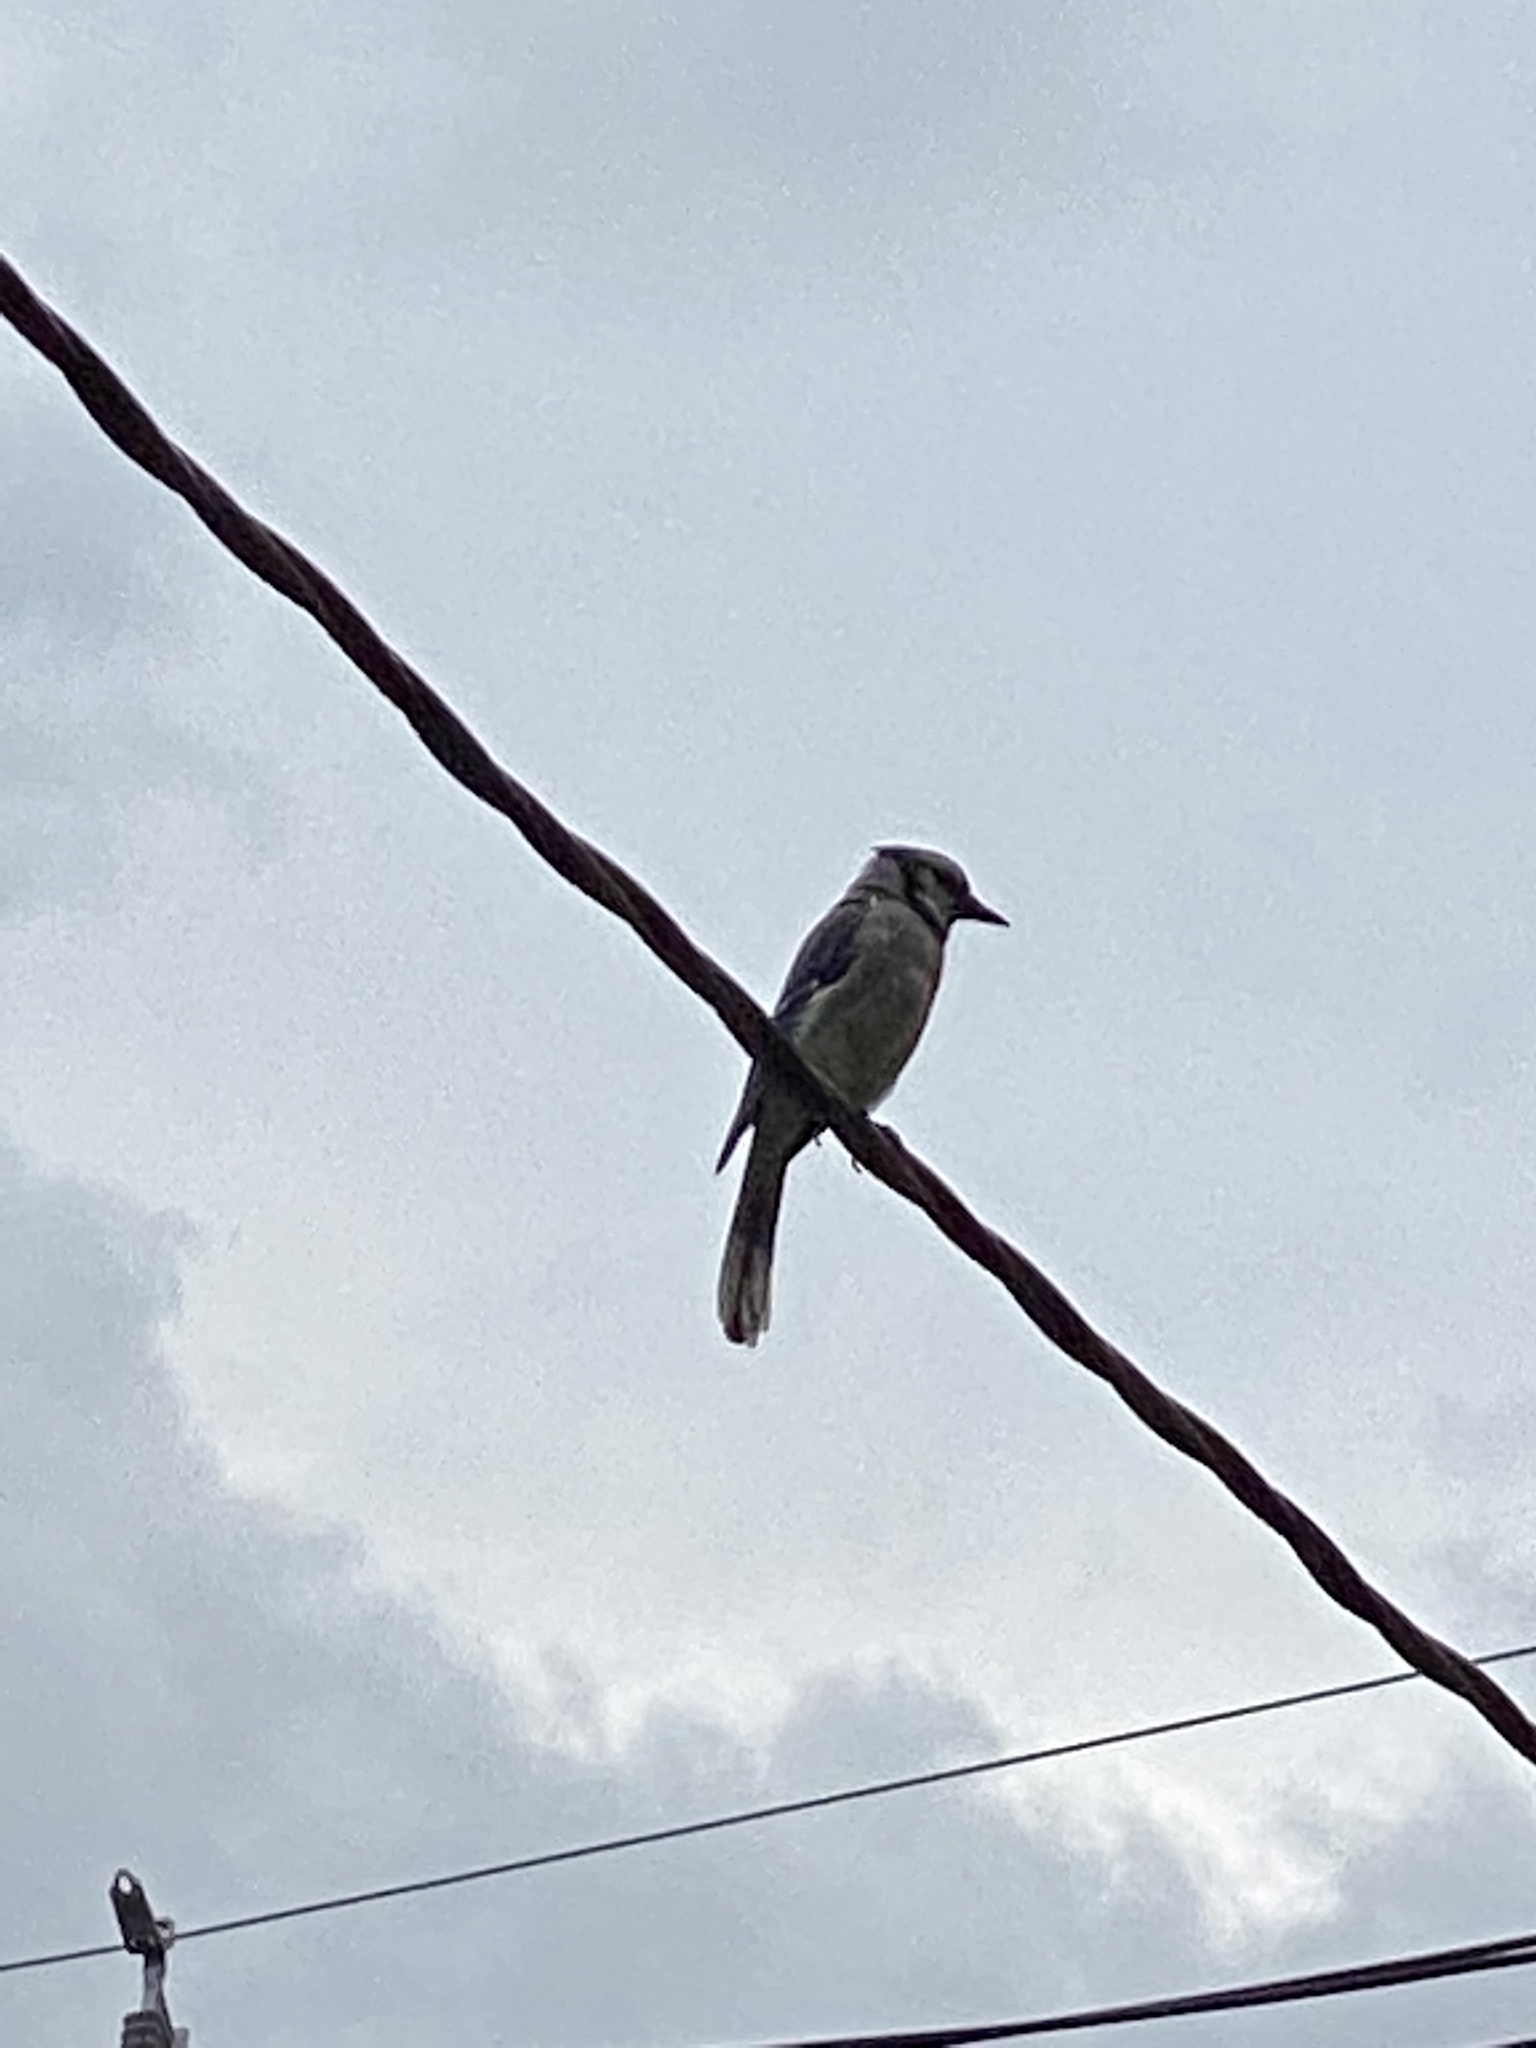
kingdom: Animalia
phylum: Chordata
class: Aves
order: Passeriformes
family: Corvidae
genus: Cyanocitta
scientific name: Cyanocitta cristata
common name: Blue jay
